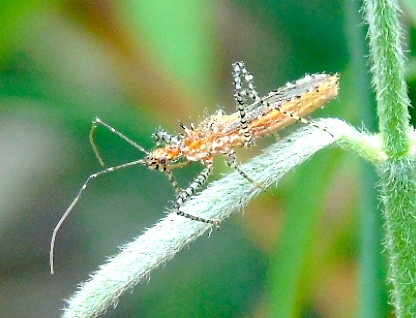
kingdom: Animalia
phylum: Arthropoda
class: Insecta
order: Hemiptera
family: Reduviidae
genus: Pselliopus
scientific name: Pselliopus punctipes
